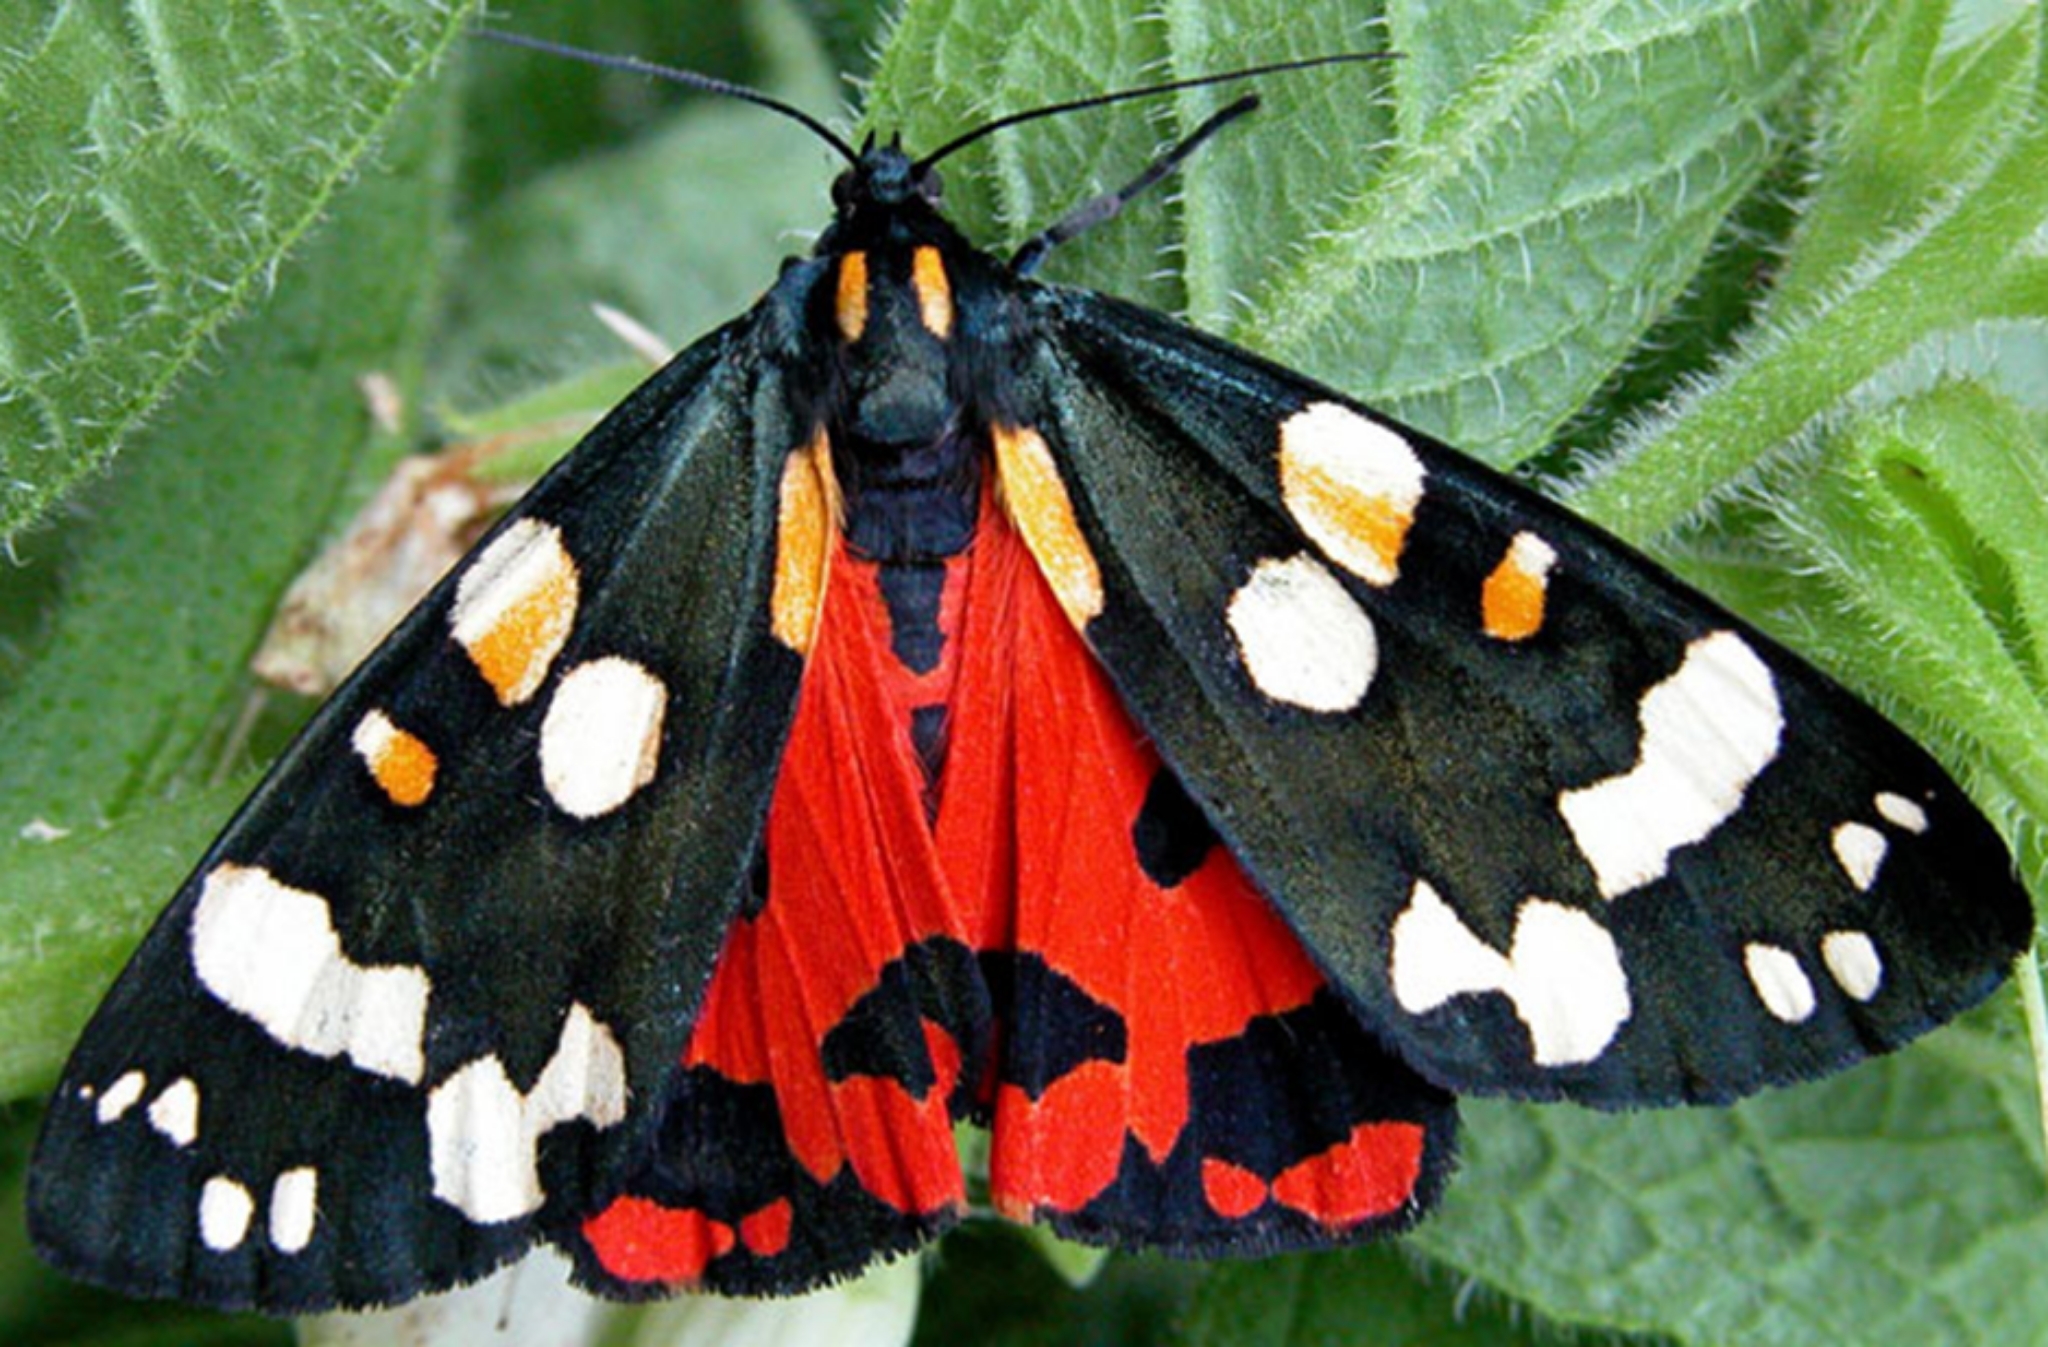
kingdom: Animalia
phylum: Arthropoda
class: Insecta
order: Lepidoptera
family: Erebidae
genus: Callimorpha
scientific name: Callimorpha dominula
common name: Scarlet tiger
